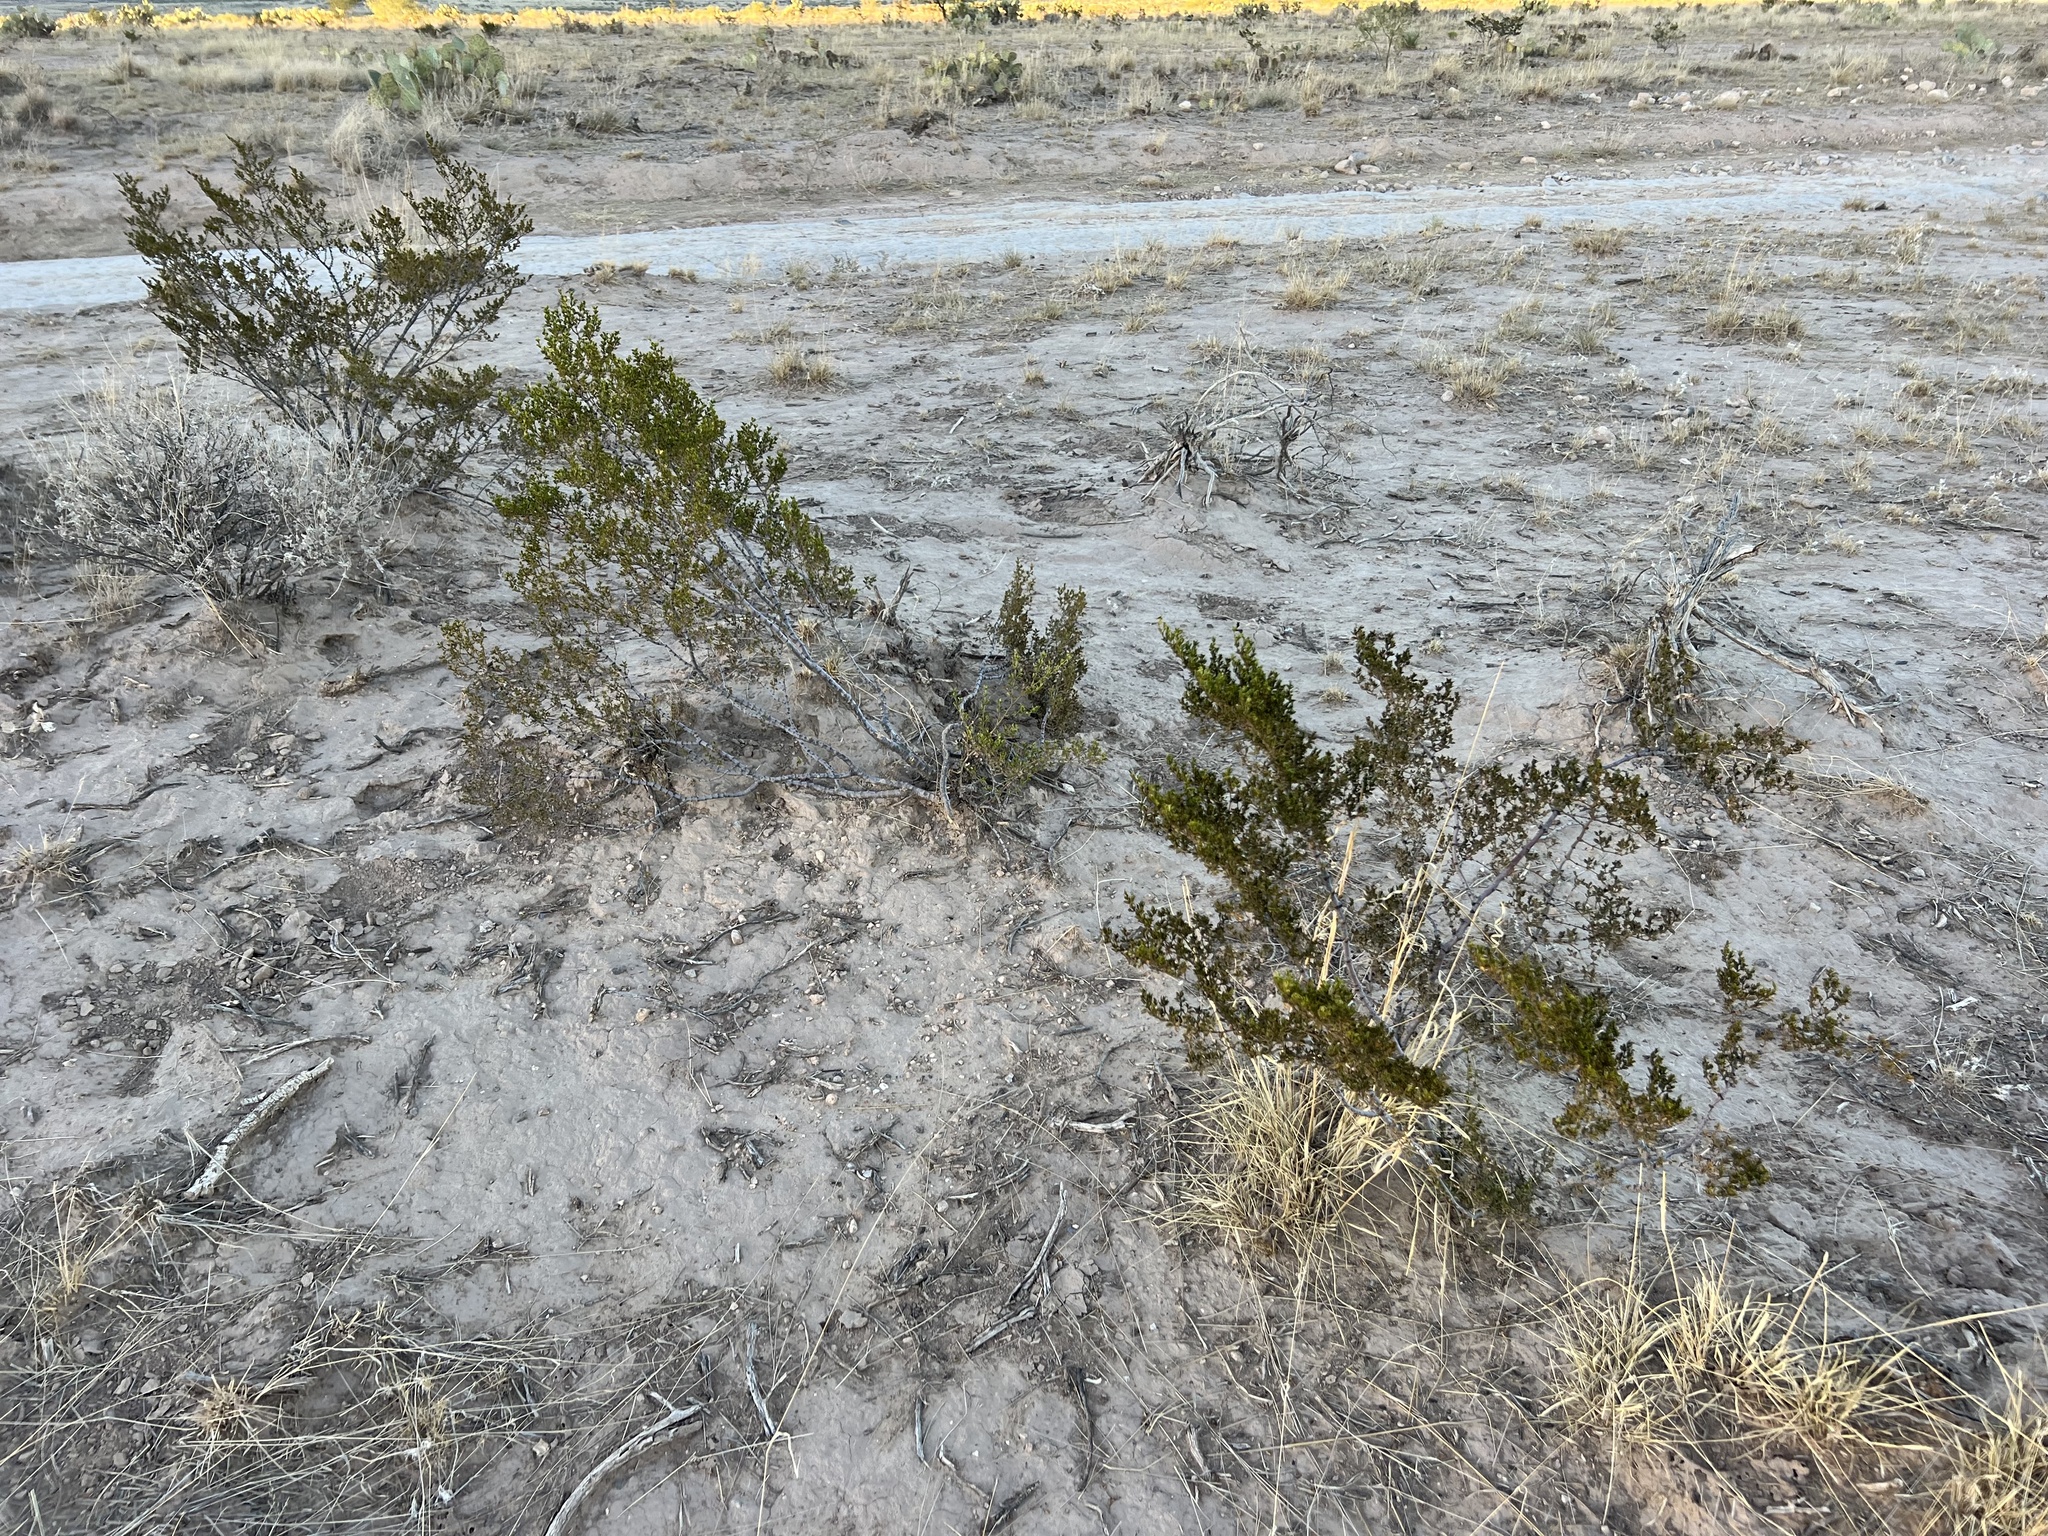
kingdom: Plantae
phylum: Tracheophyta
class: Magnoliopsida
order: Zygophyllales
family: Zygophyllaceae
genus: Larrea
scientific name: Larrea tridentata
